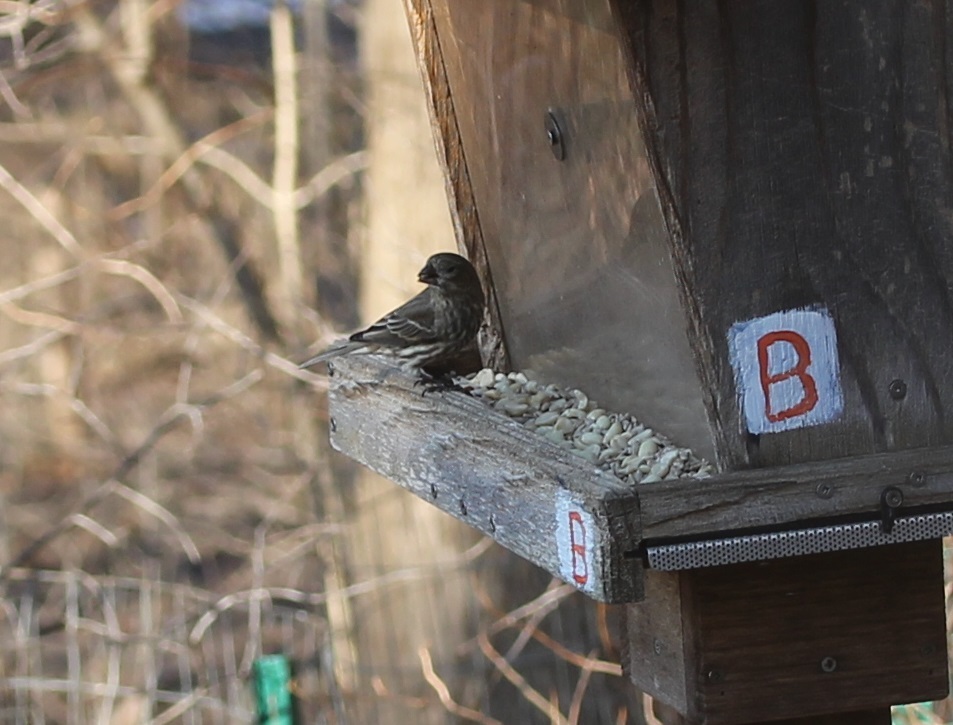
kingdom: Animalia
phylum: Chordata
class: Aves
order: Passeriformes
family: Fringillidae
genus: Haemorhous
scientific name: Haemorhous mexicanus
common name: House finch
